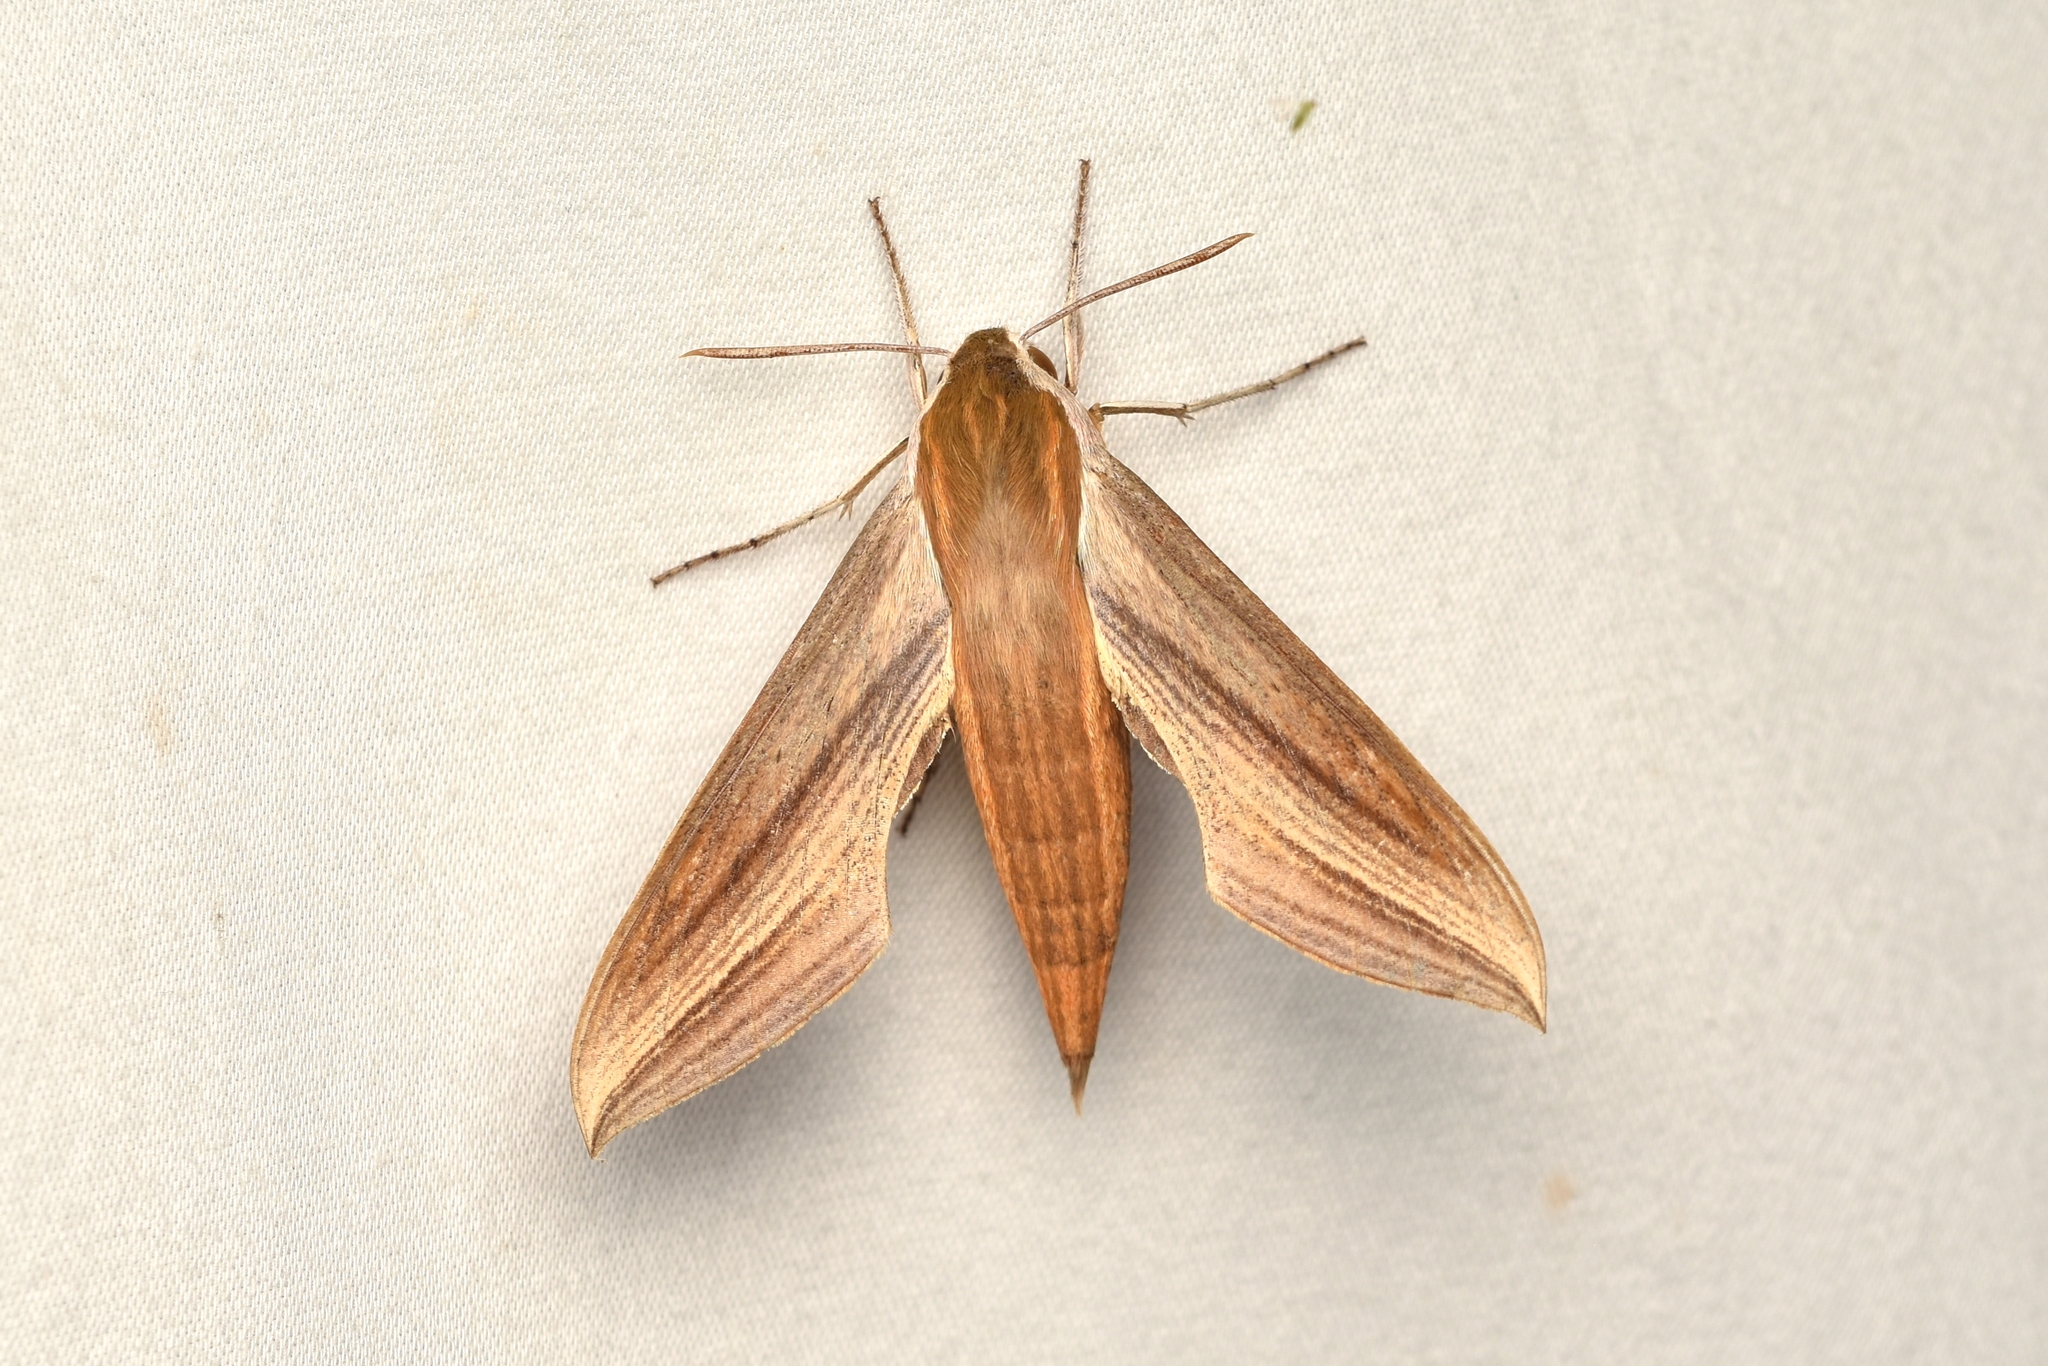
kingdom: Animalia
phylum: Arthropoda
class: Insecta
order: Lepidoptera
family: Sphingidae
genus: Xylophanes
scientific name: Xylophanes tersa
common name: Tersa sphinx
